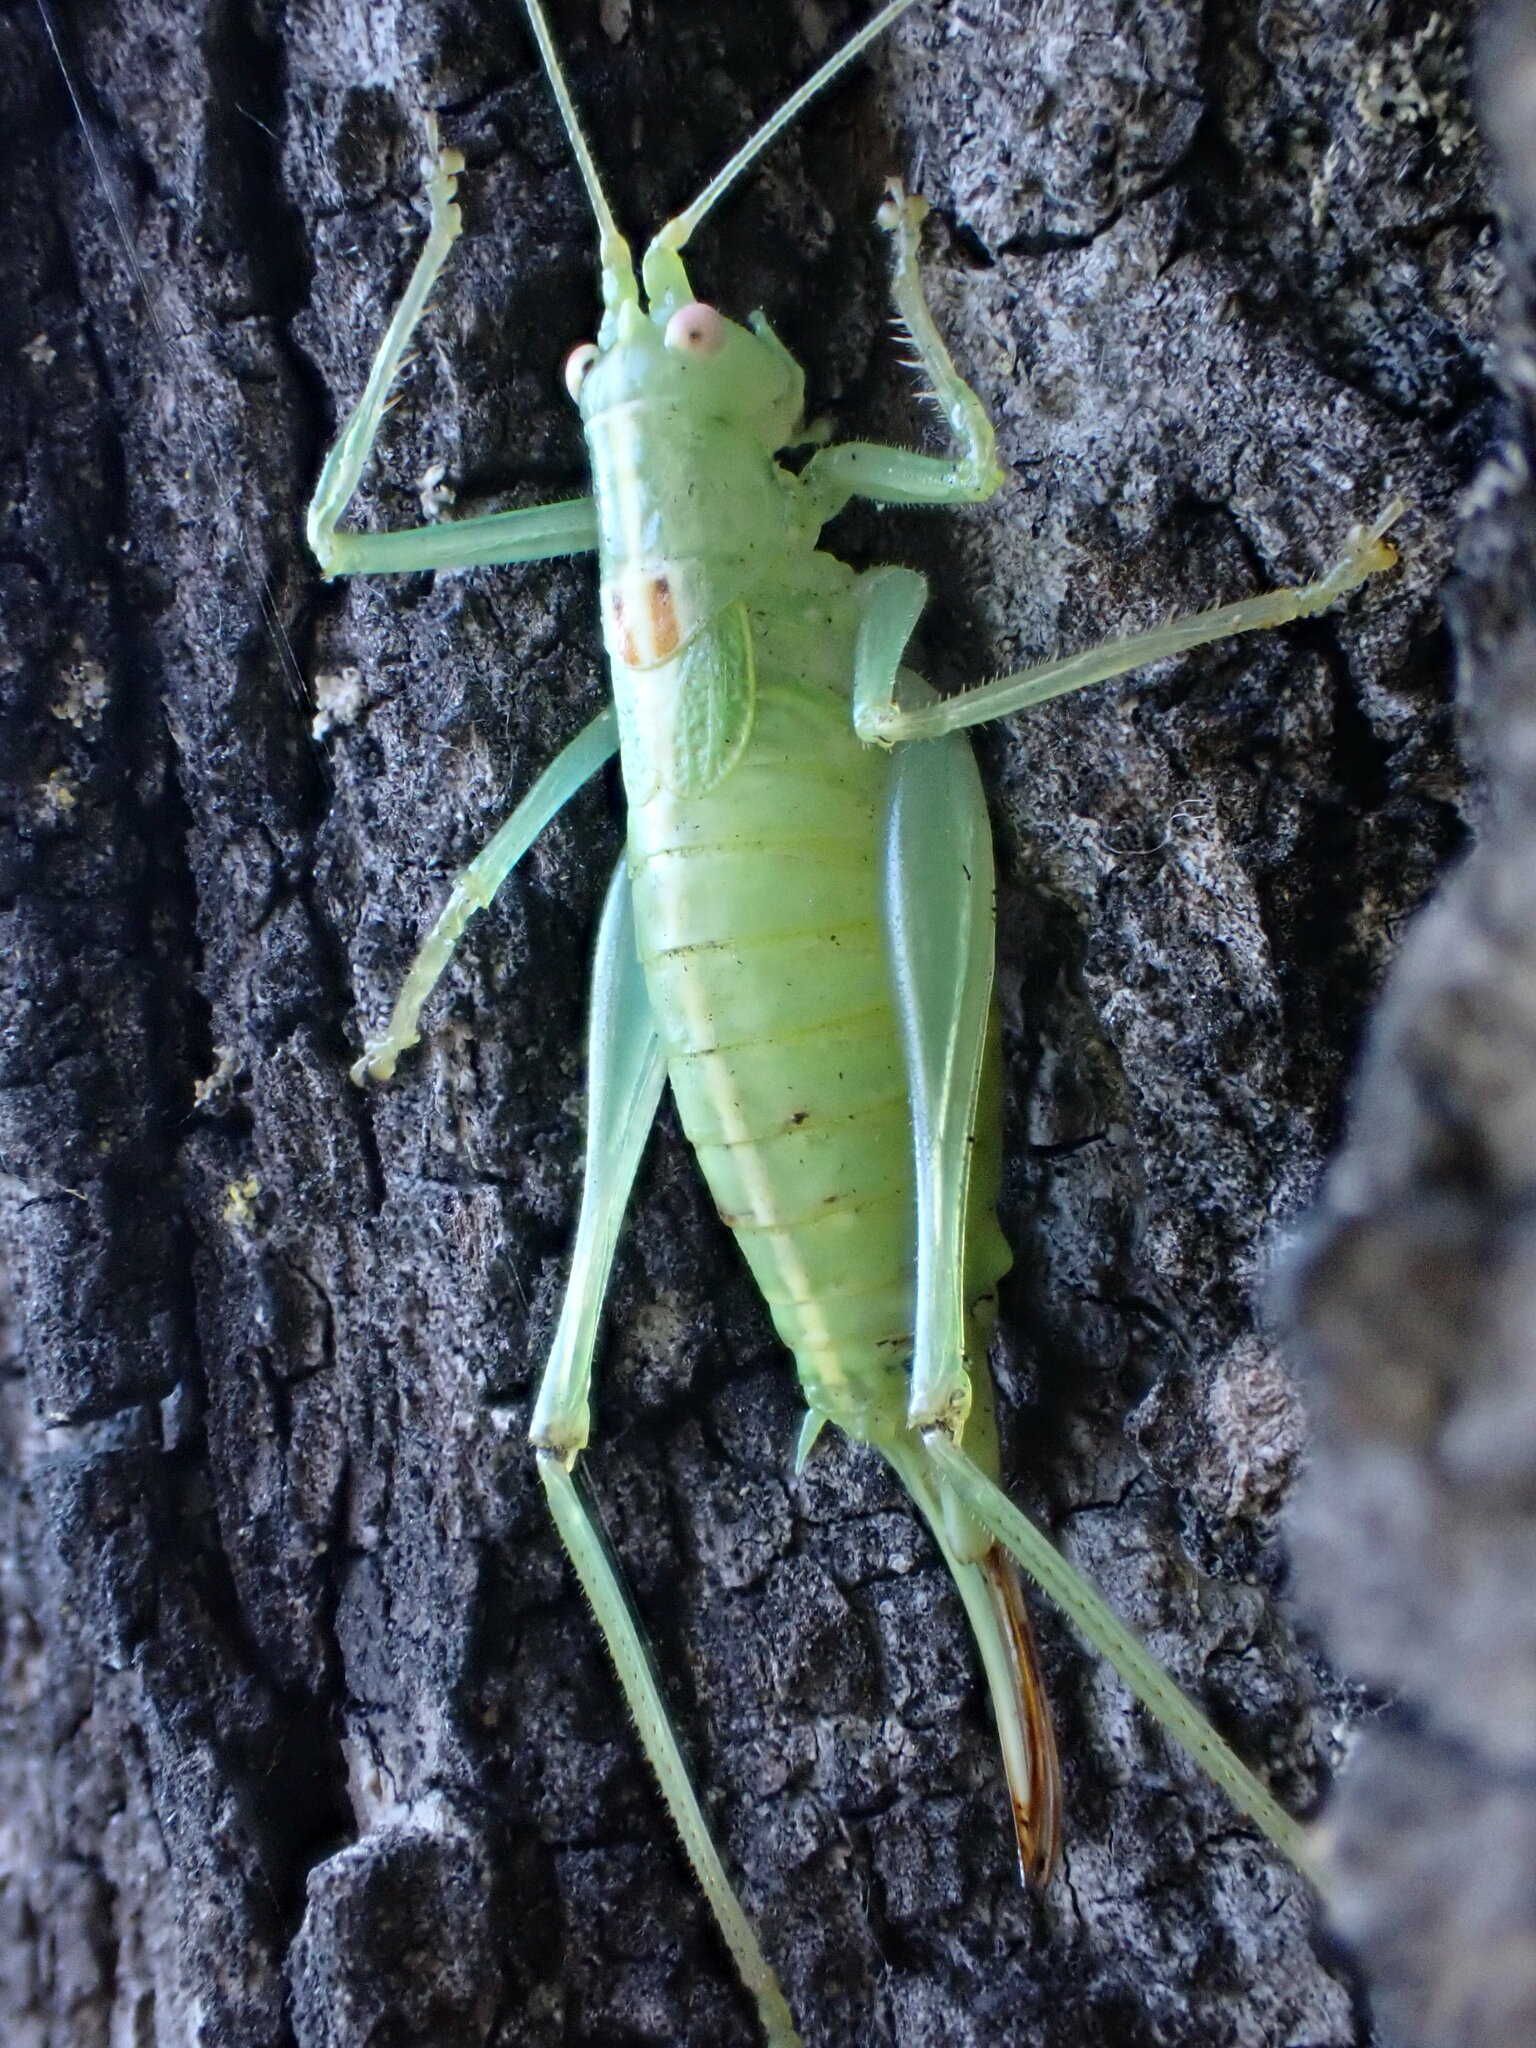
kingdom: Animalia
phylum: Arthropoda
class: Insecta
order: Orthoptera
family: Tettigoniidae
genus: Meconema
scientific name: Meconema meridionale
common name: Southern oak bush-cricket
